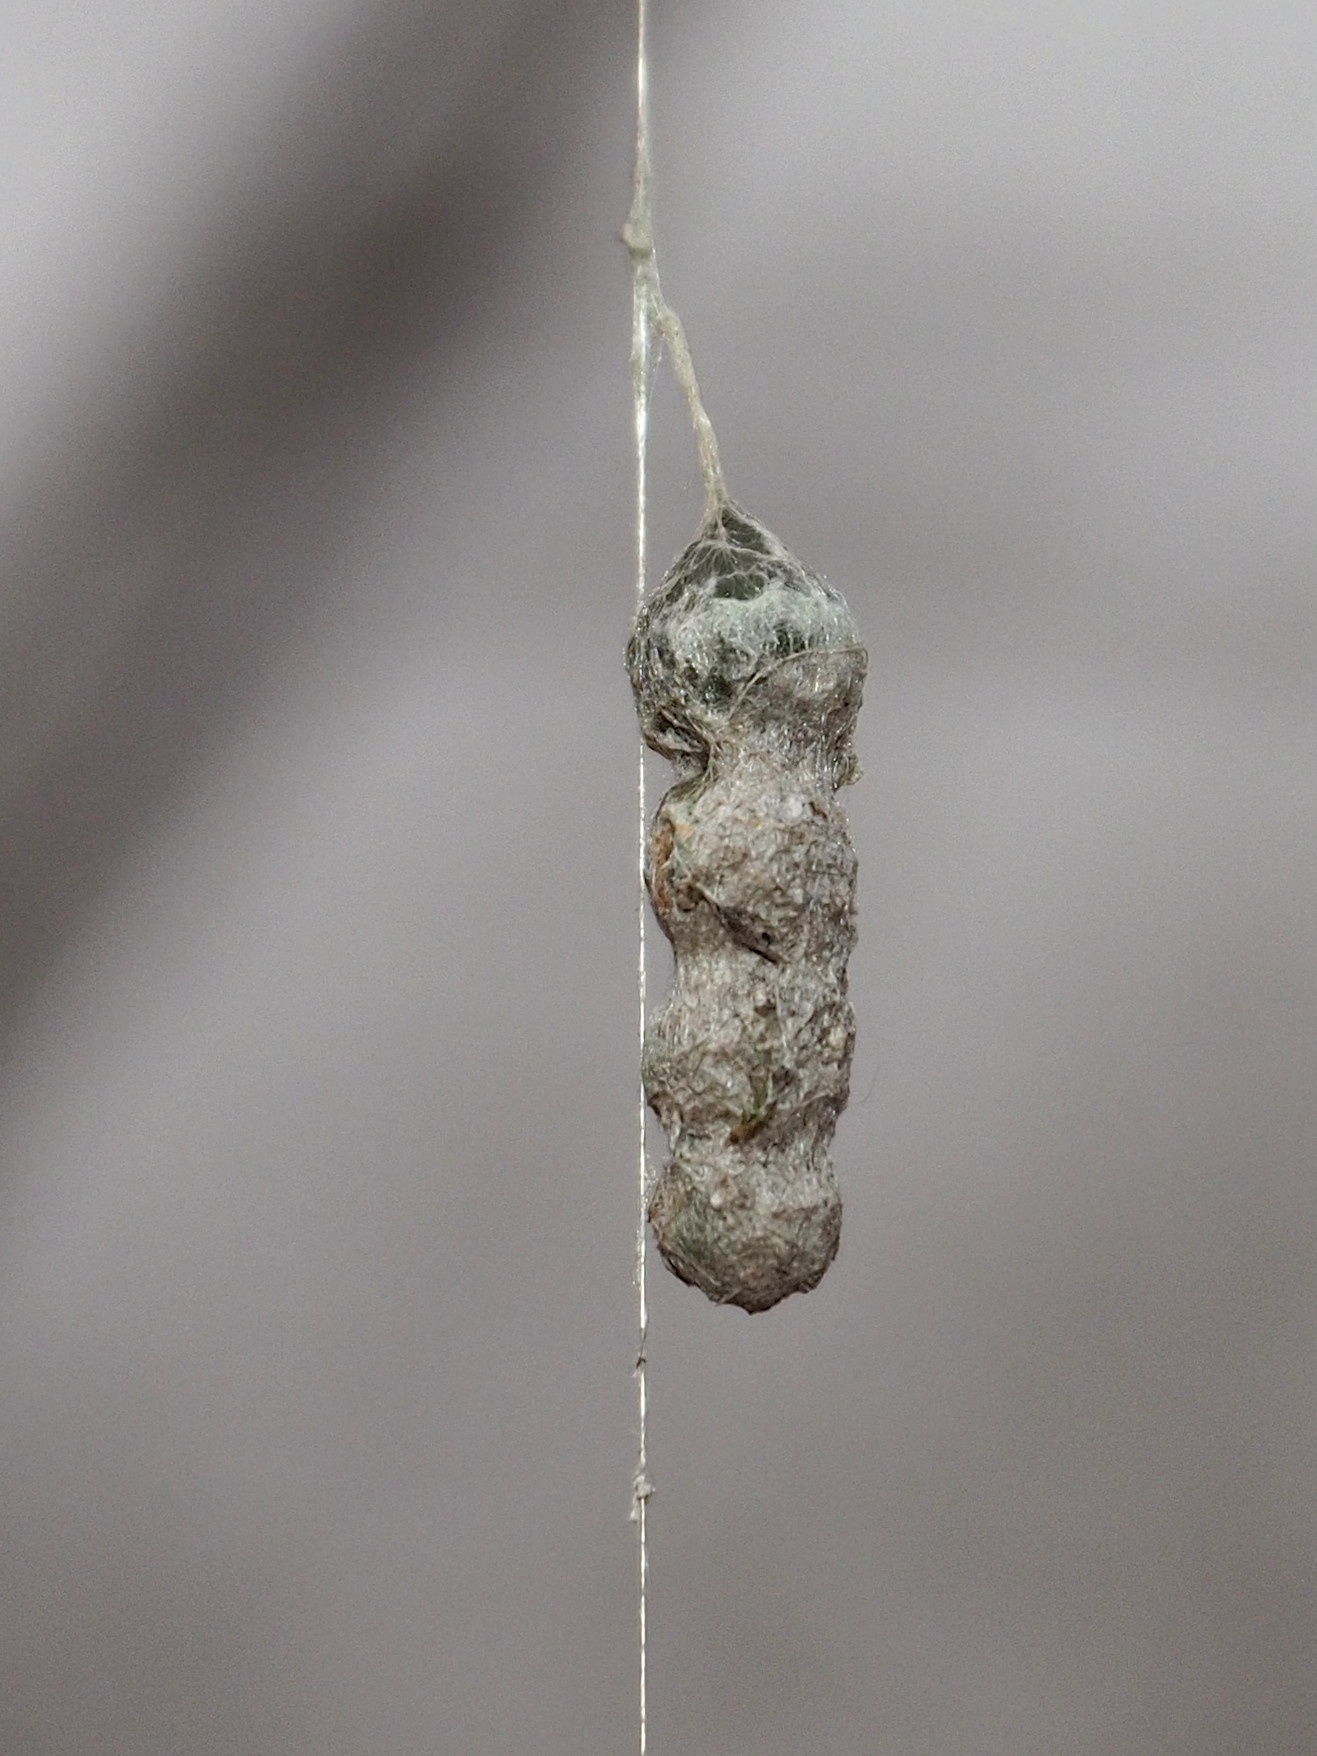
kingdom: Animalia
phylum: Arthropoda
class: Arachnida
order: Araneae
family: Araneidae
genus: Mecynogea
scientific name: Mecynogea lemniscata
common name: Orb weavers
